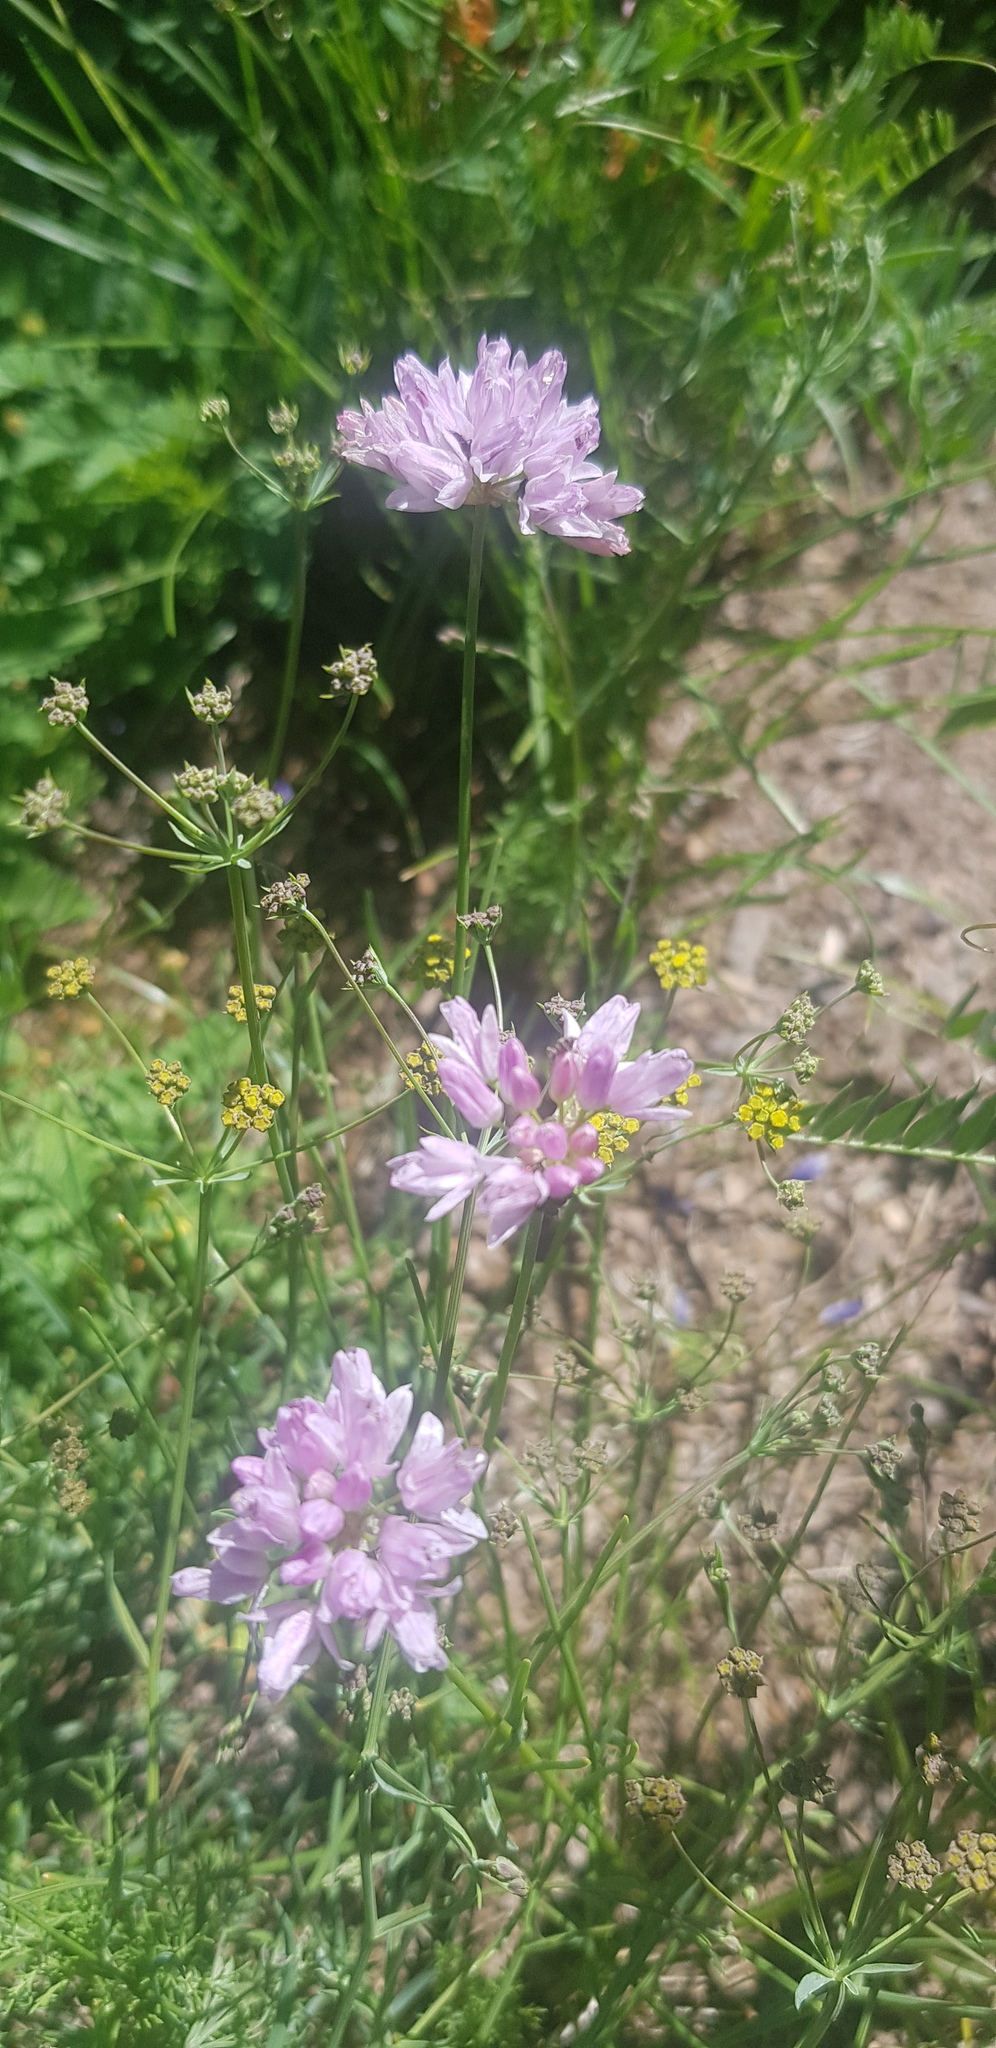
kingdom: Plantae
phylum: Tracheophyta
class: Liliopsida
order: Asparagales
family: Amaryllidaceae
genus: Allium
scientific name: Allium anisopodium
